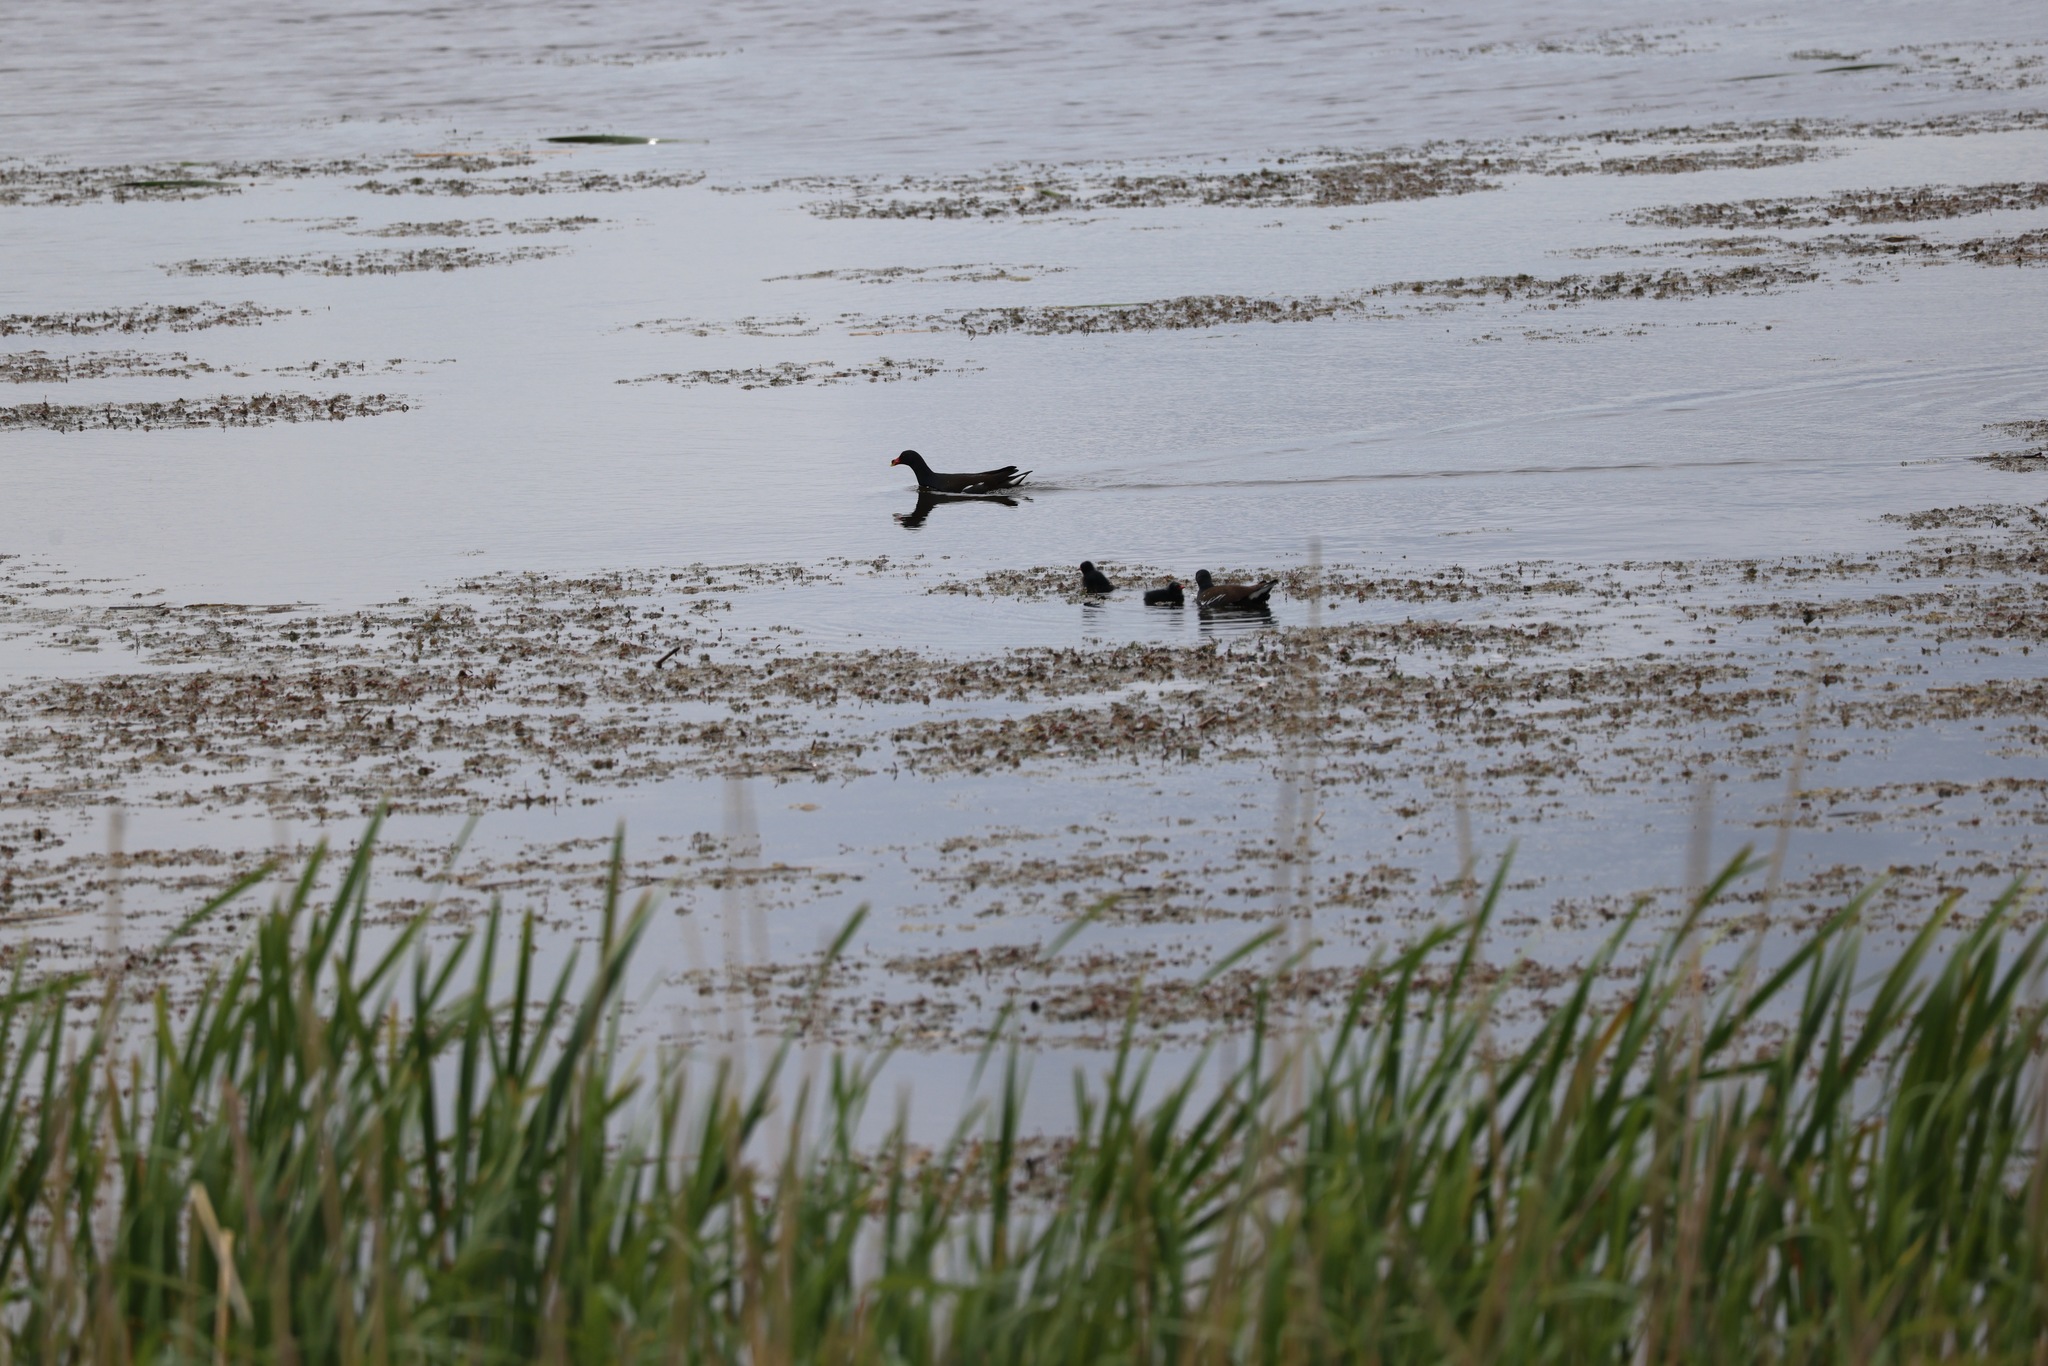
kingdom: Animalia
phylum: Chordata
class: Aves
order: Gruiformes
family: Rallidae
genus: Gallinula
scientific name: Gallinula chloropus
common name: Common moorhen
